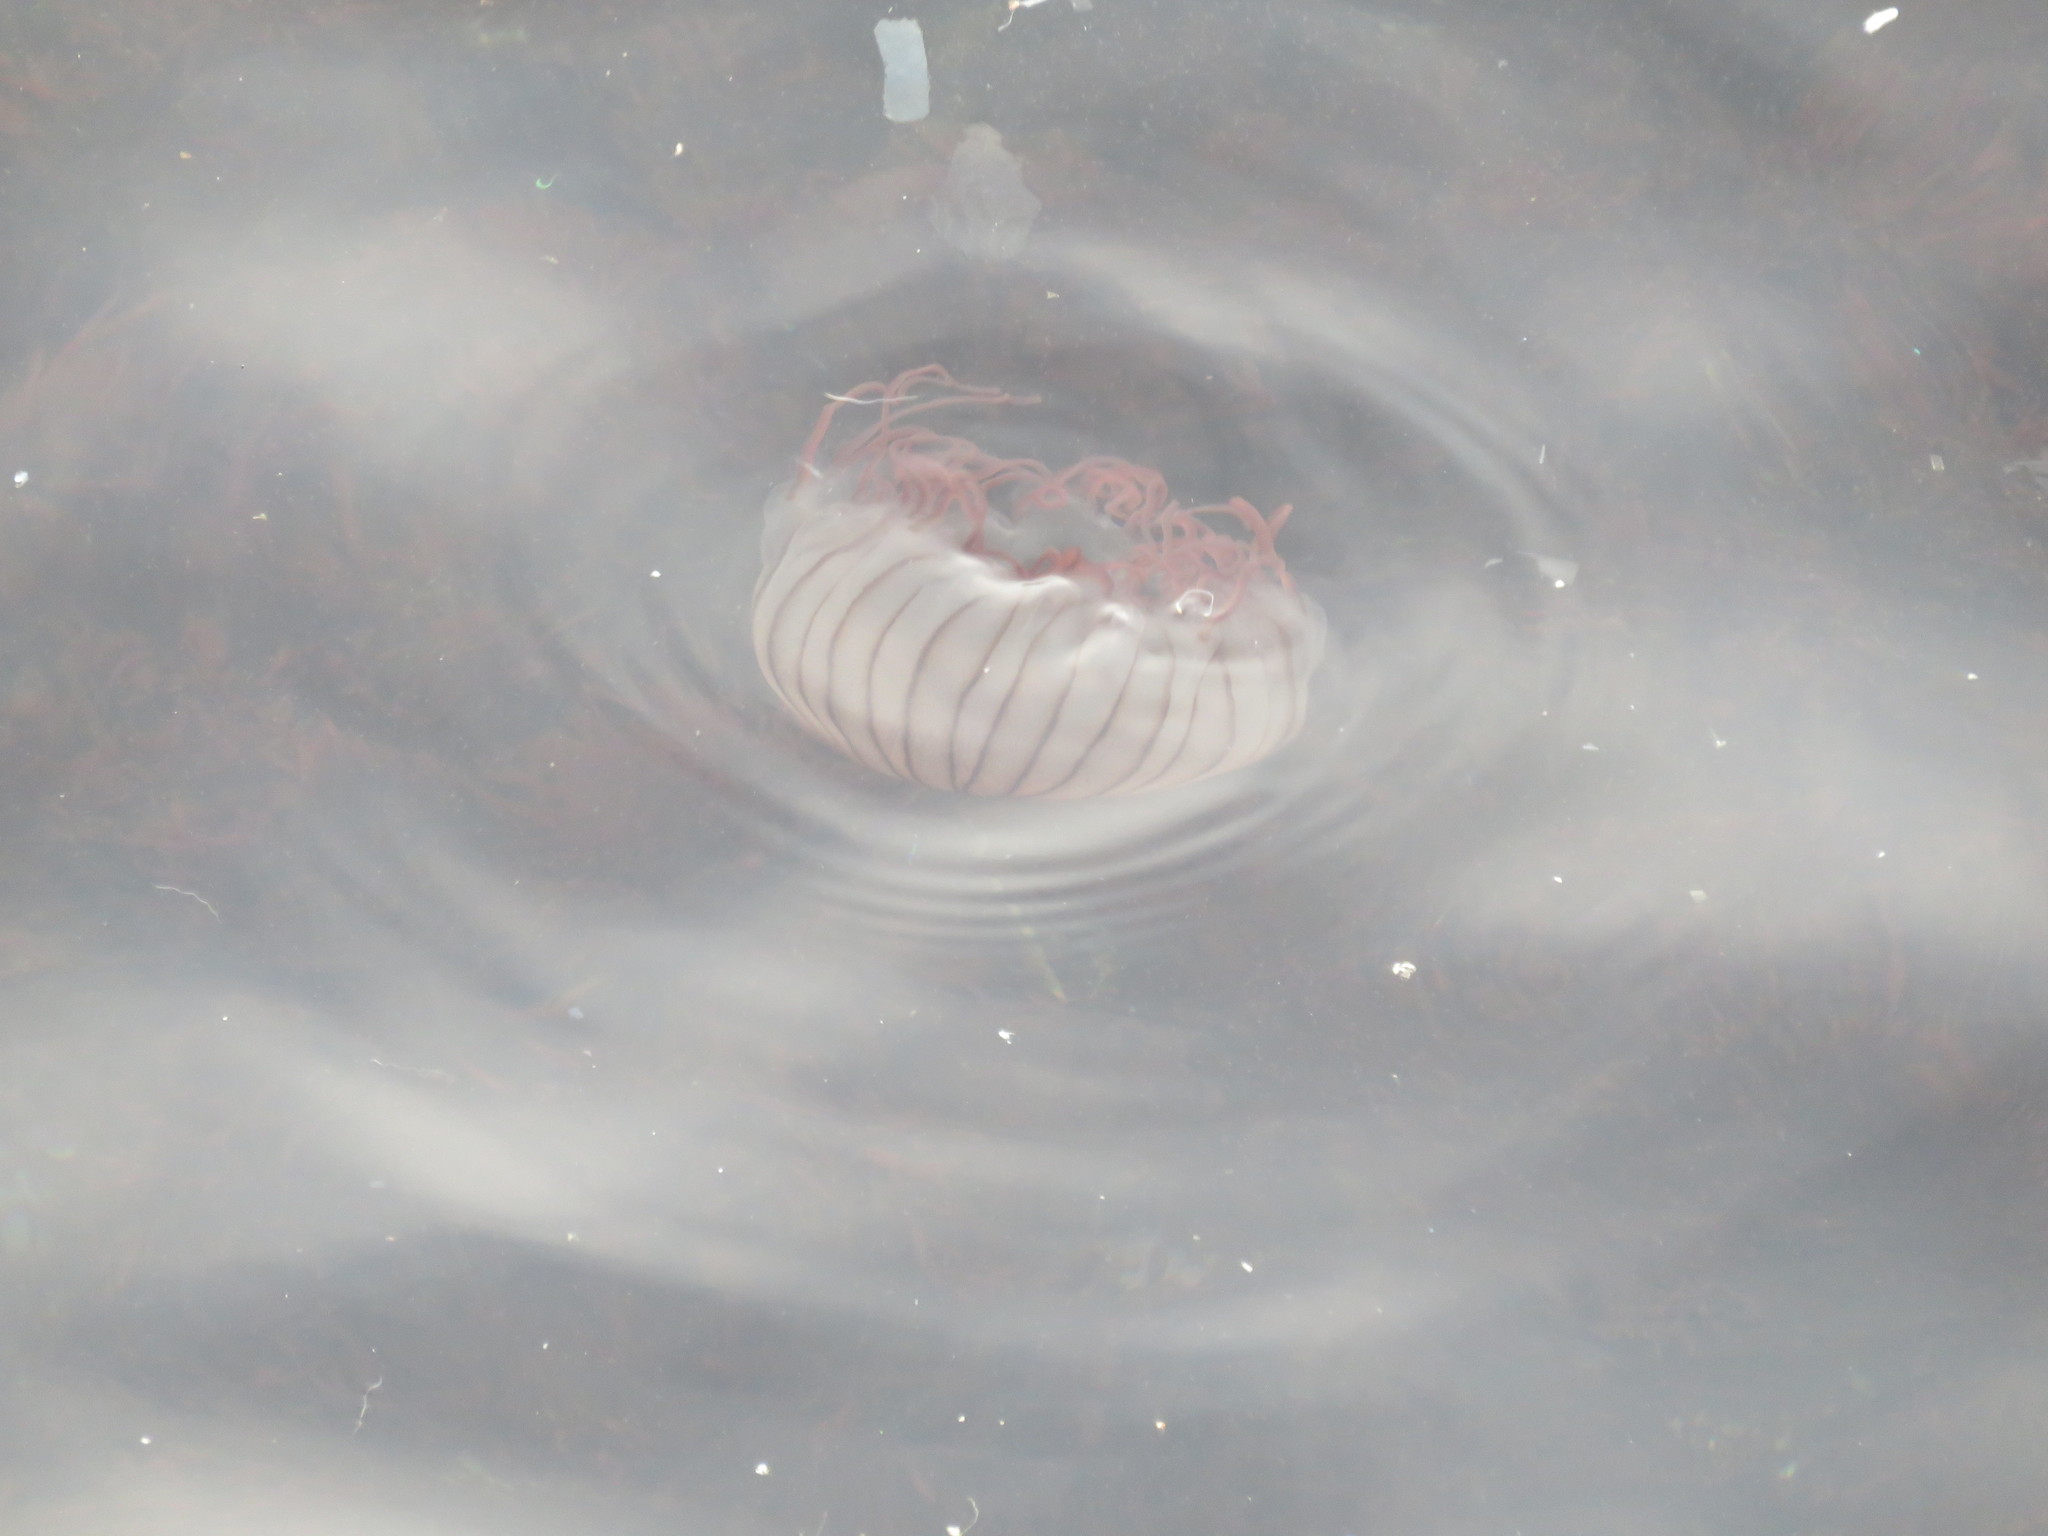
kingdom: Animalia
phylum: Cnidaria
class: Scyphozoa
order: Semaeostomeae
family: Pelagiidae
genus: Chrysaora
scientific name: Chrysaora pacifica
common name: Sea nettle
